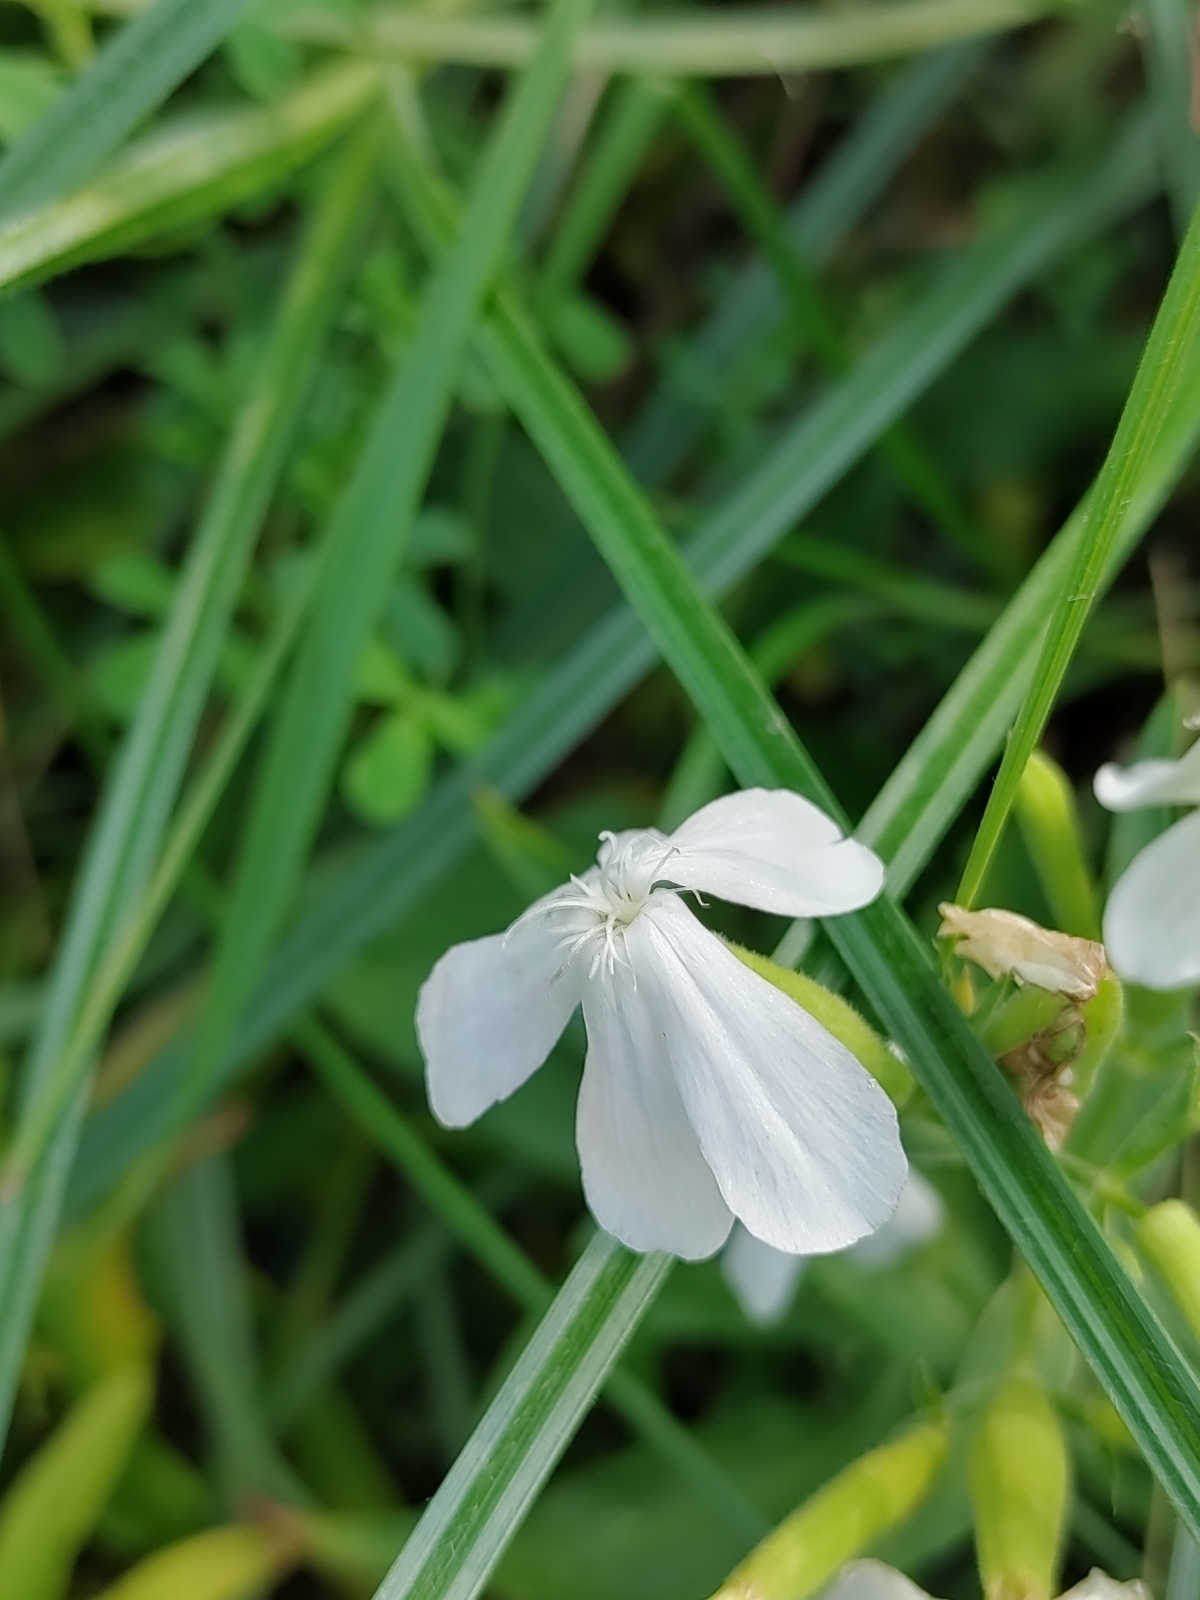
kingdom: Plantae
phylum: Tracheophyta
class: Magnoliopsida
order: Caryophyllales
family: Caryophyllaceae
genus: Saponaria
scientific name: Saponaria officinalis
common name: Soapwort
